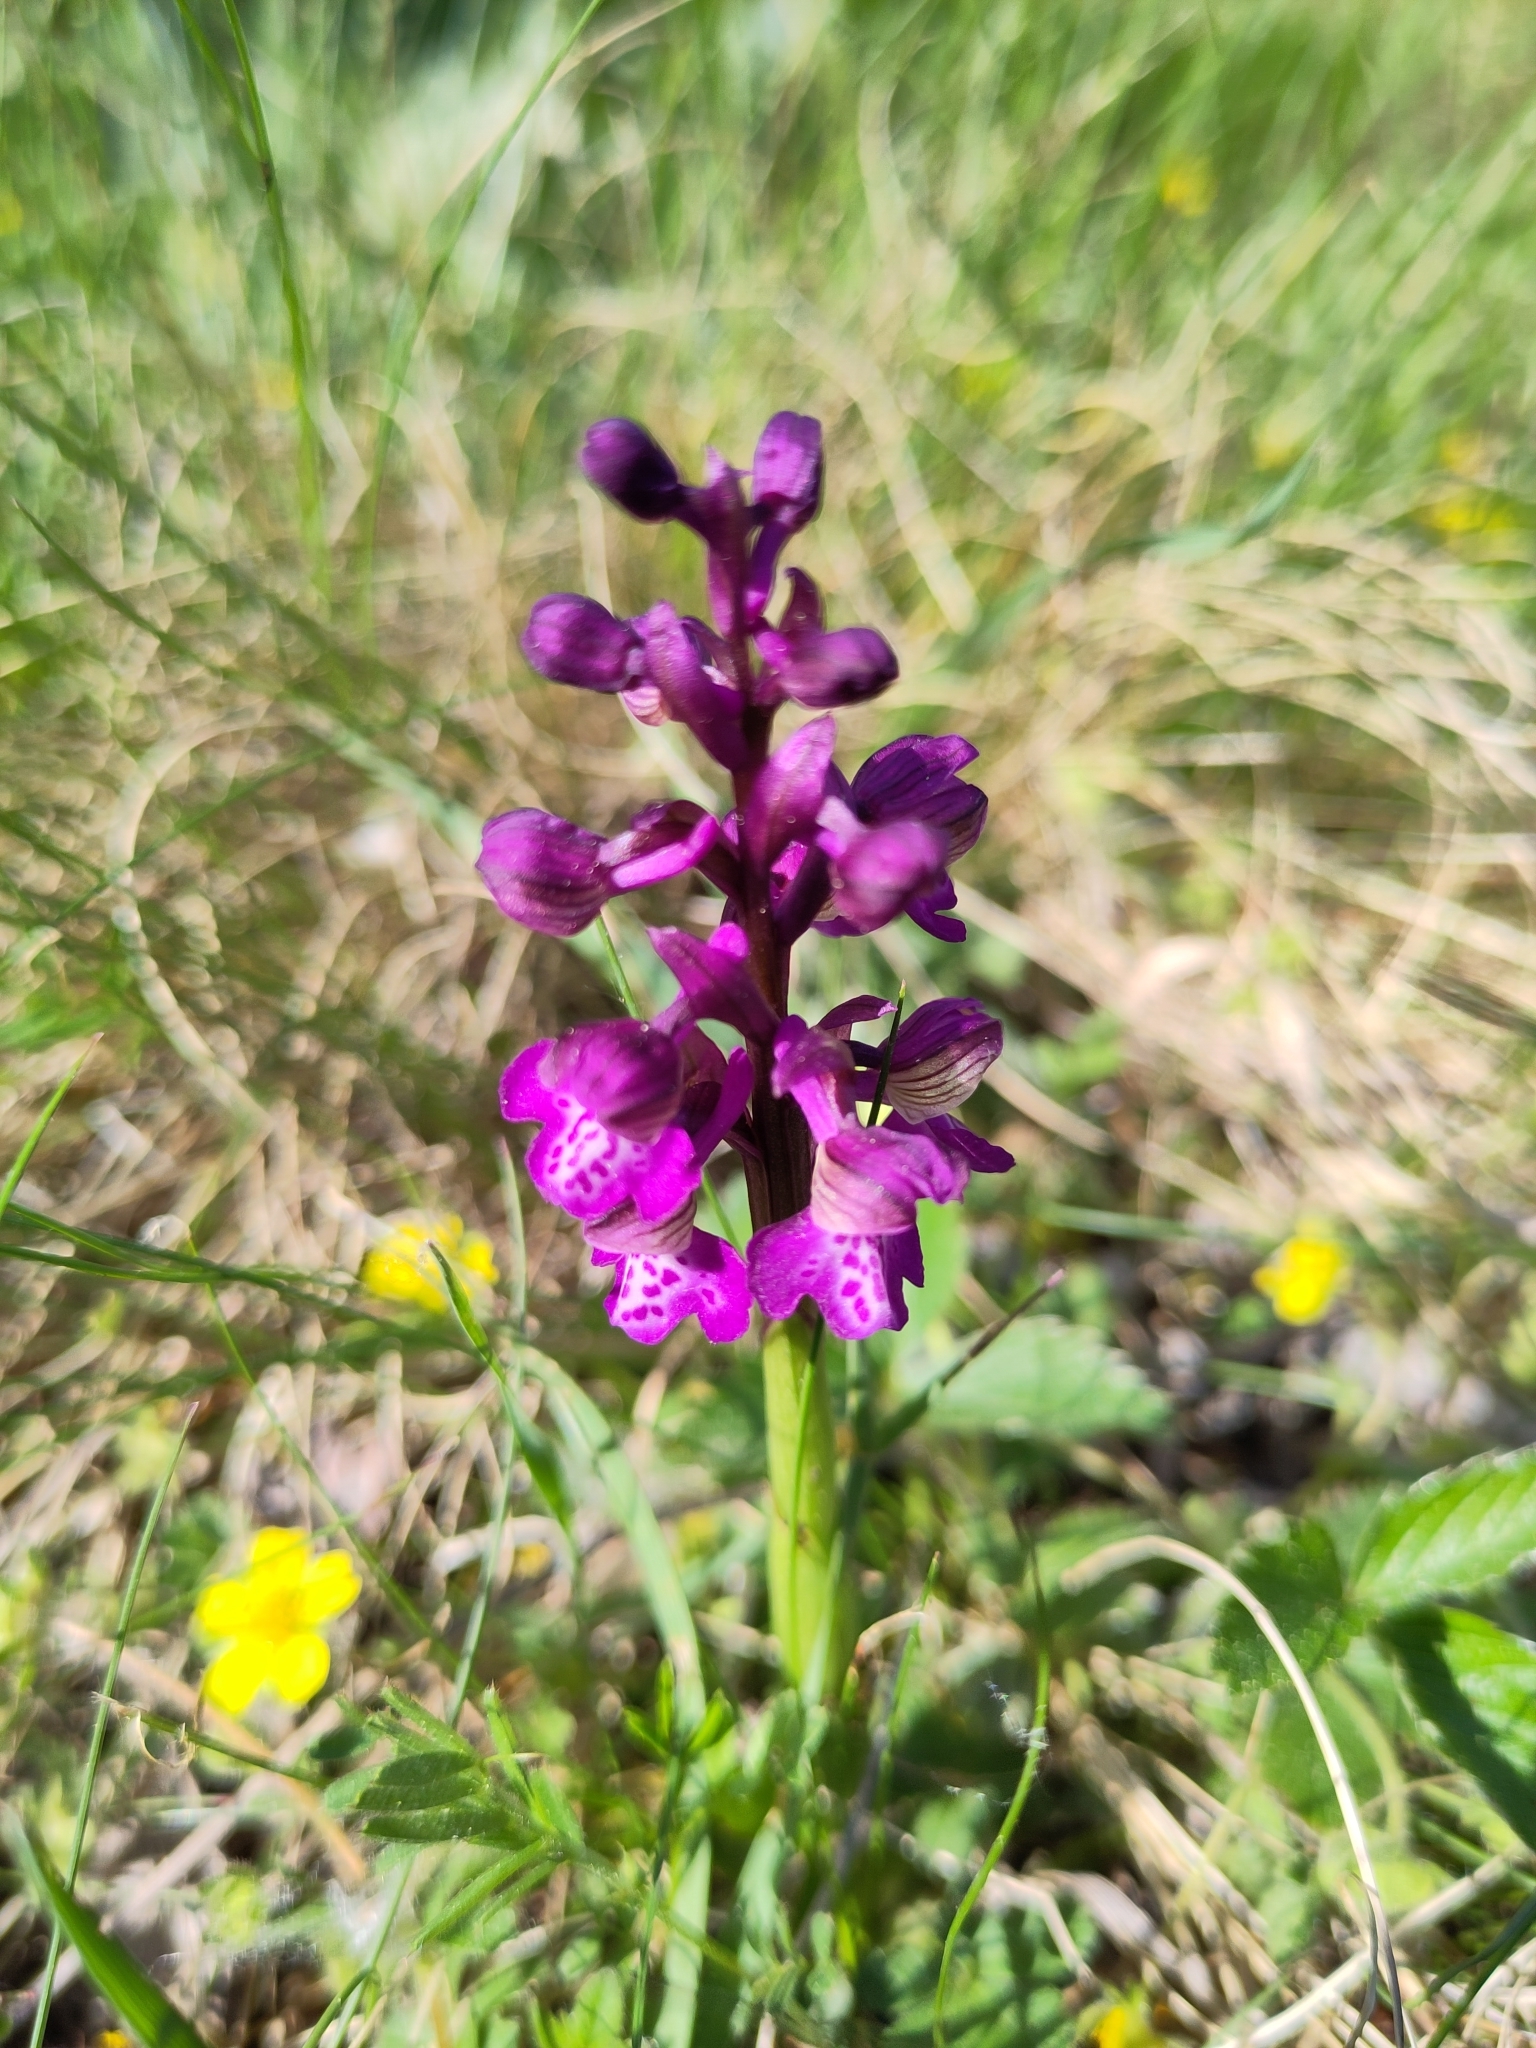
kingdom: Plantae
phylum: Tracheophyta
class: Liliopsida
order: Asparagales
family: Orchidaceae
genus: Anacamptis
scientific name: Anacamptis morio
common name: Green-winged orchid
